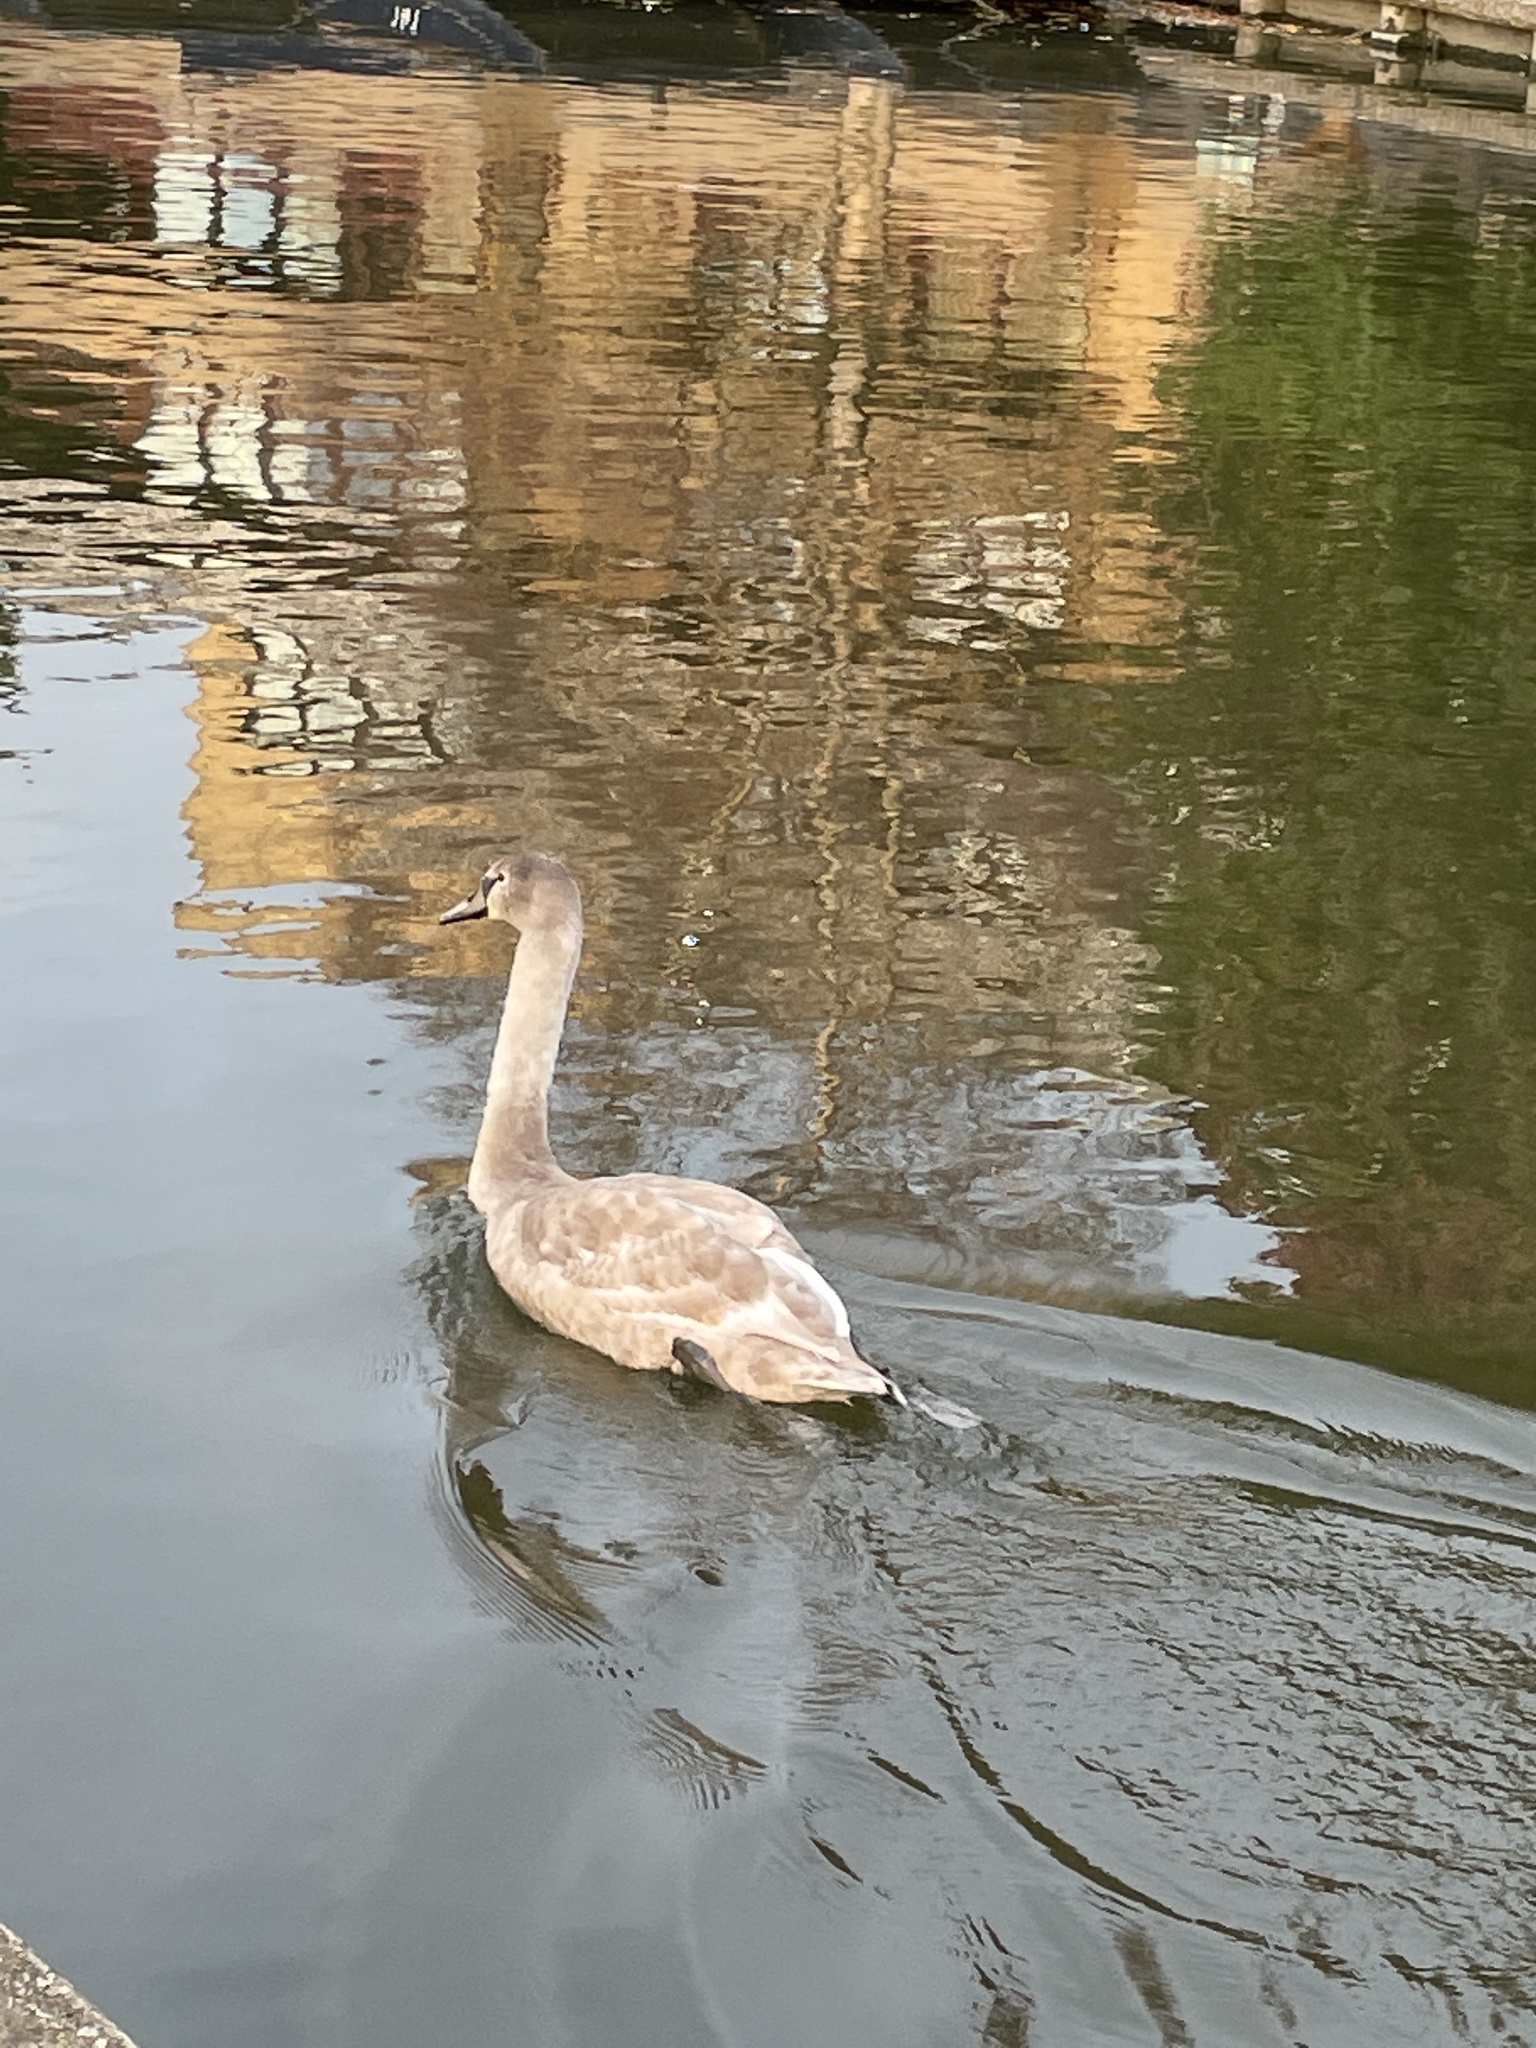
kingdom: Animalia
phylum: Chordata
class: Aves
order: Anseriformes
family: Anatidae
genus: Cygnus
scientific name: Cygnus olor
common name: Mute swan
